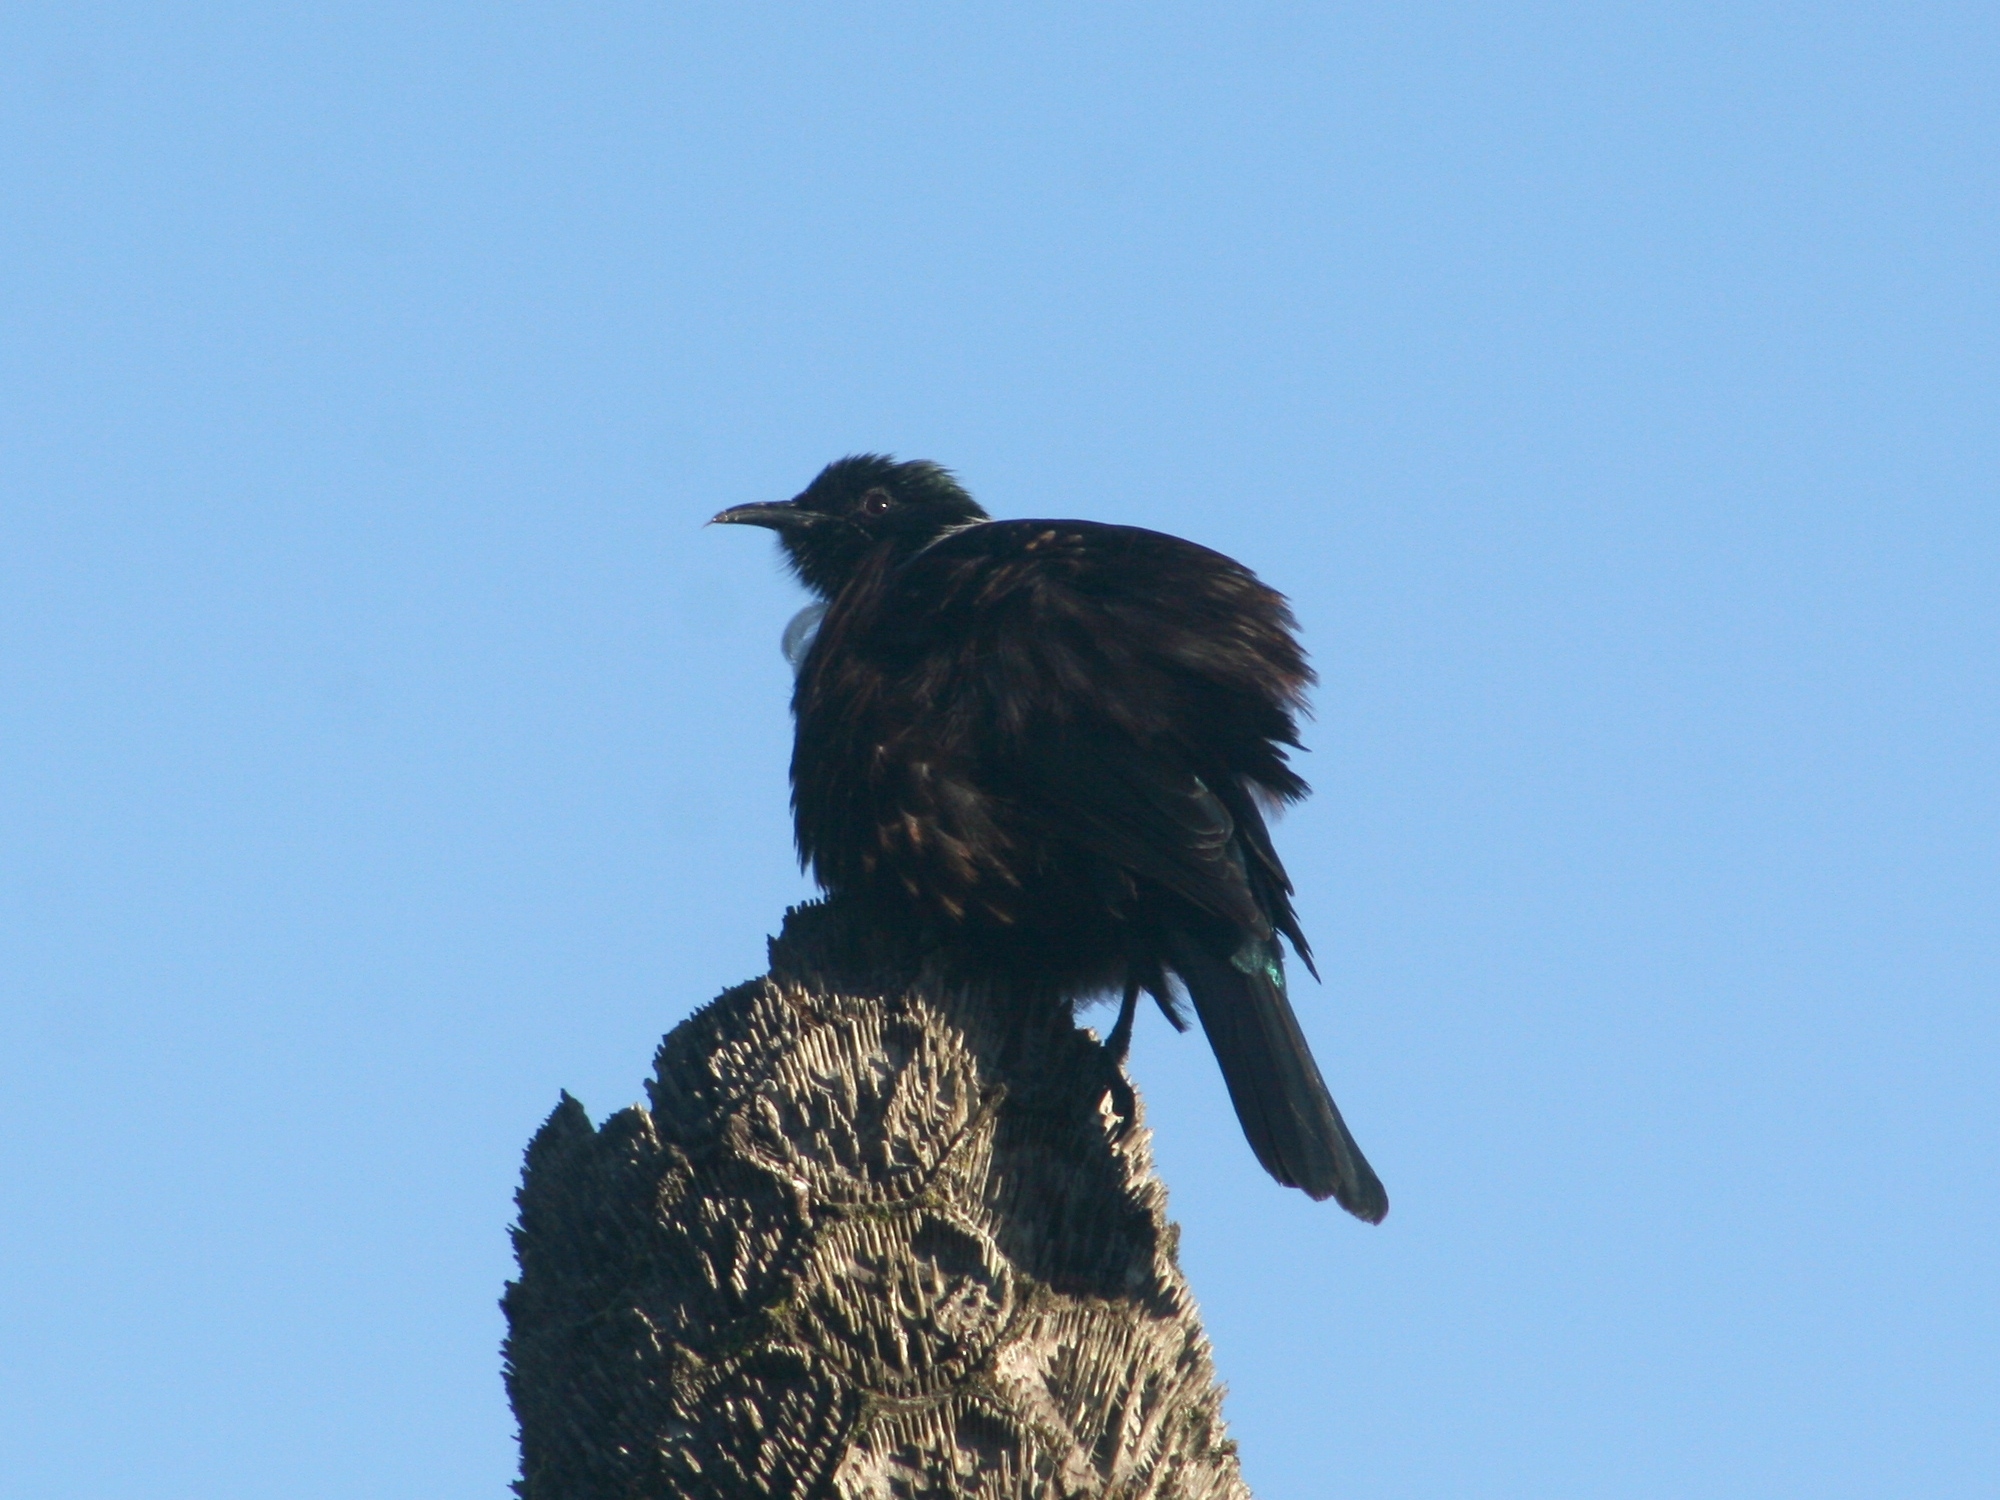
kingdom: Animalia
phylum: Chordata
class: Aves
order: Passeriformes
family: Meliphagidae
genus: Prosthemadera
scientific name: Prosthemadera novaeseelandiae
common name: Tui
